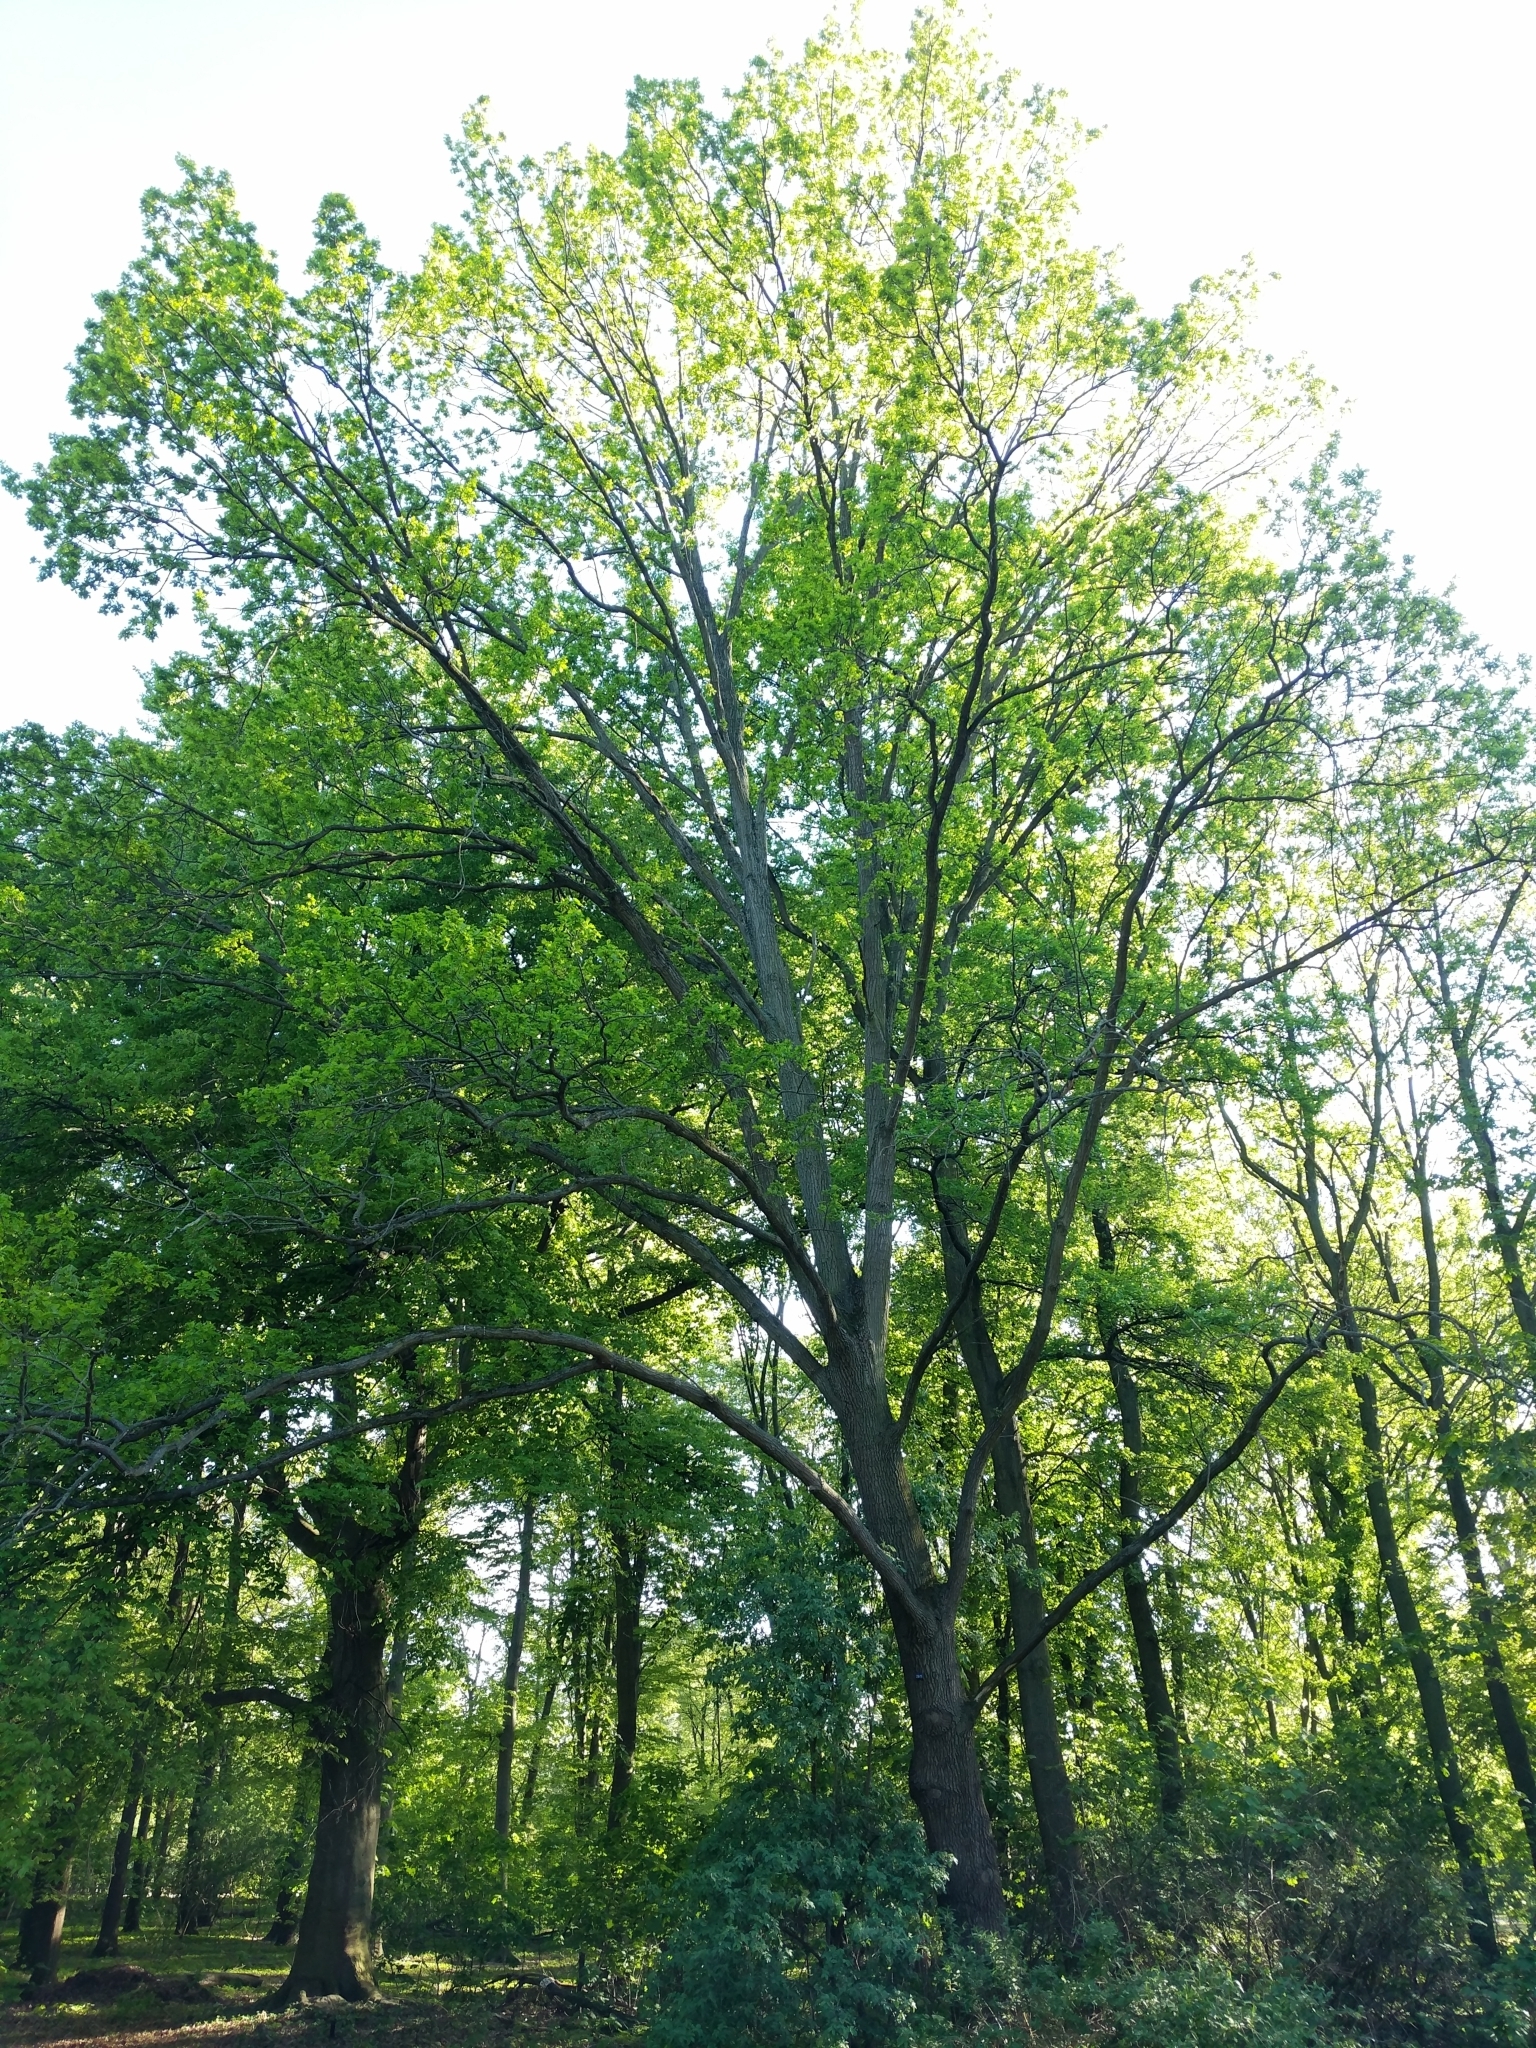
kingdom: Plantae
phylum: Tracheophyta
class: Magnoliopsida
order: Fagales
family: Fagaceae
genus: Quercus
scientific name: Quercus robur
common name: Pedunculate oak
